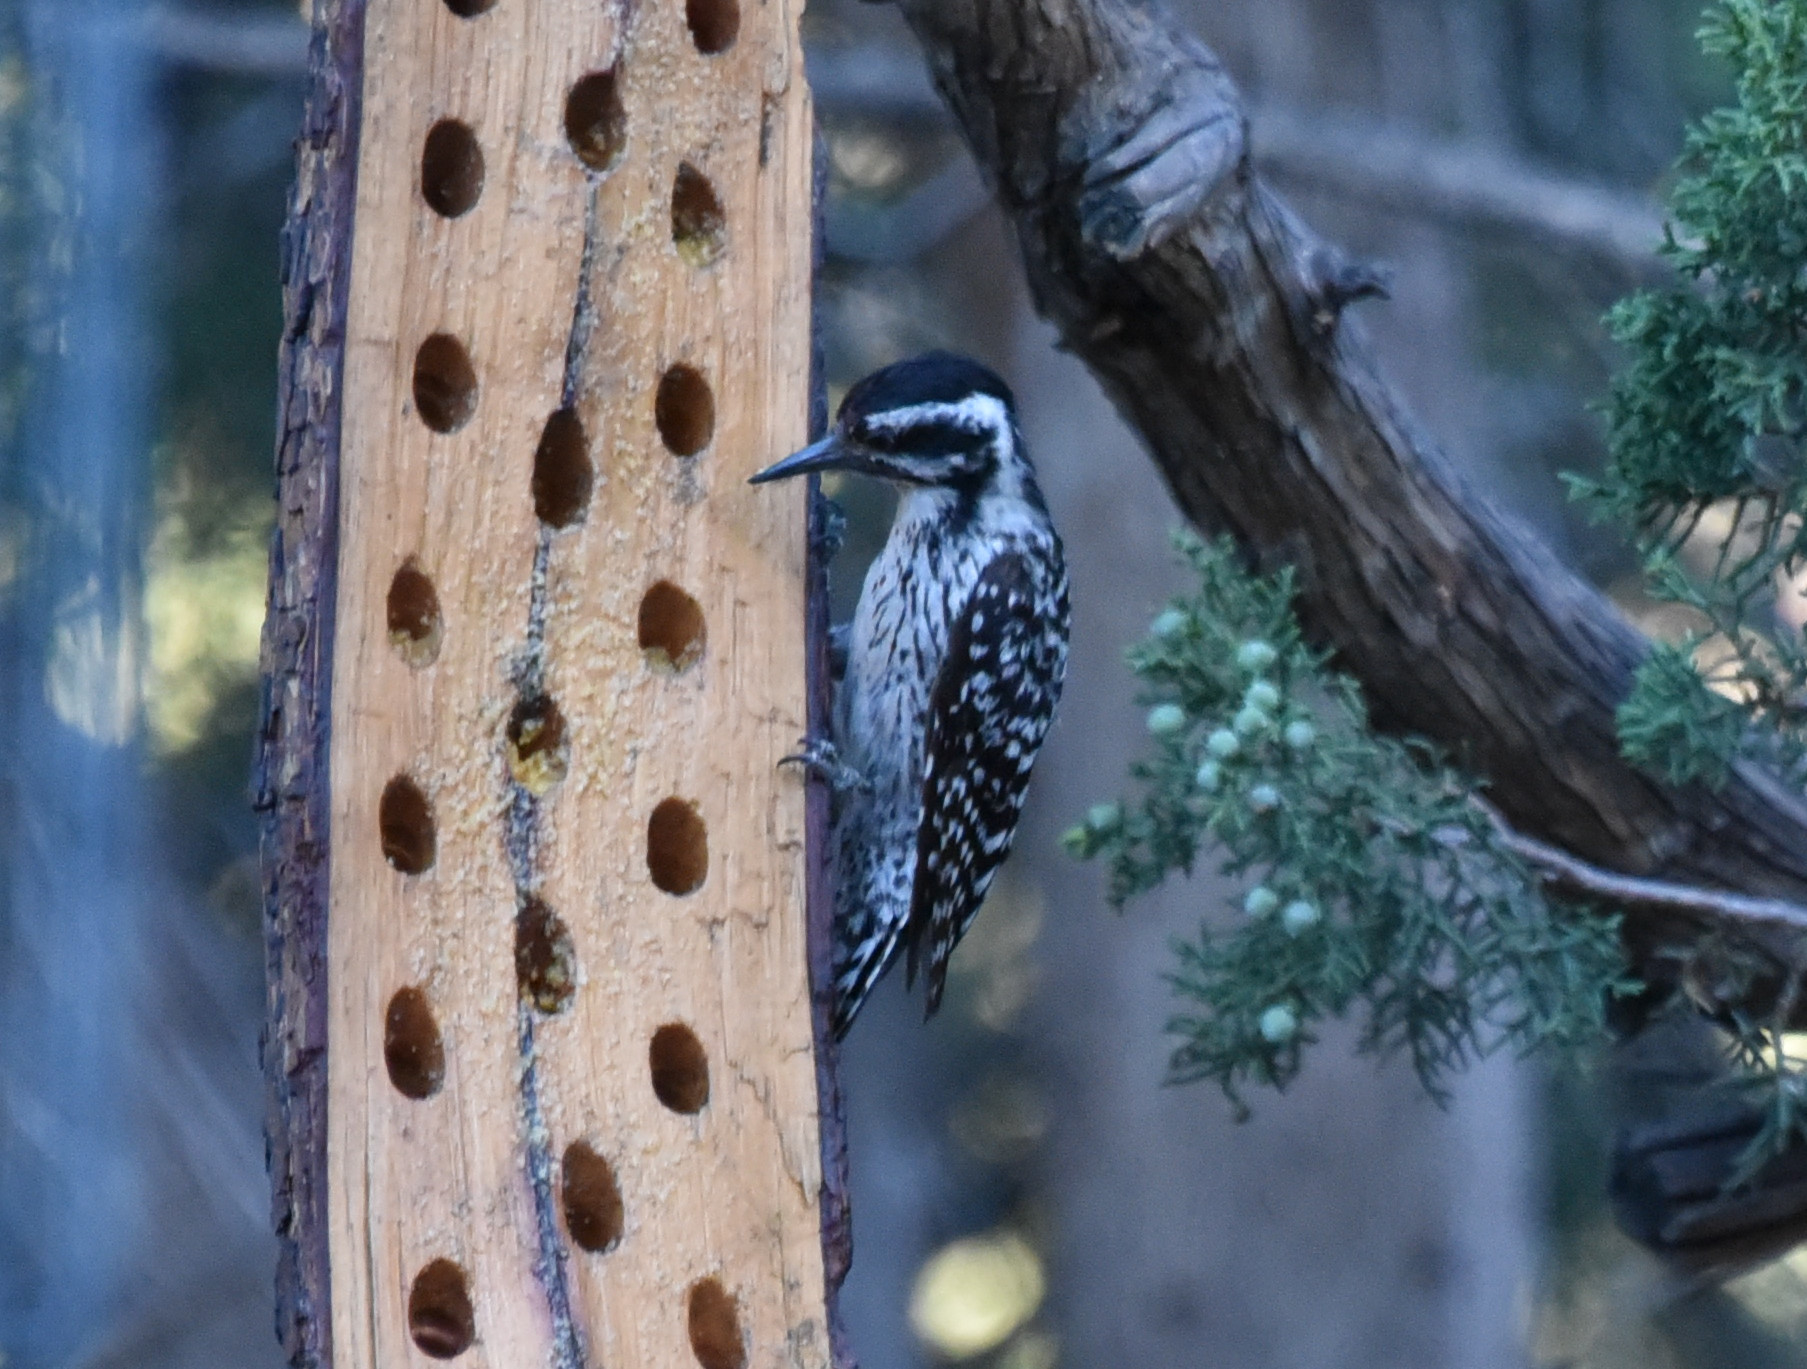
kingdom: Animalia
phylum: Chordata
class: Aves
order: Piciformes
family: Picidae
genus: Dryobates
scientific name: Dryobates scalaris
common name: Ladder-backed woodpecker
